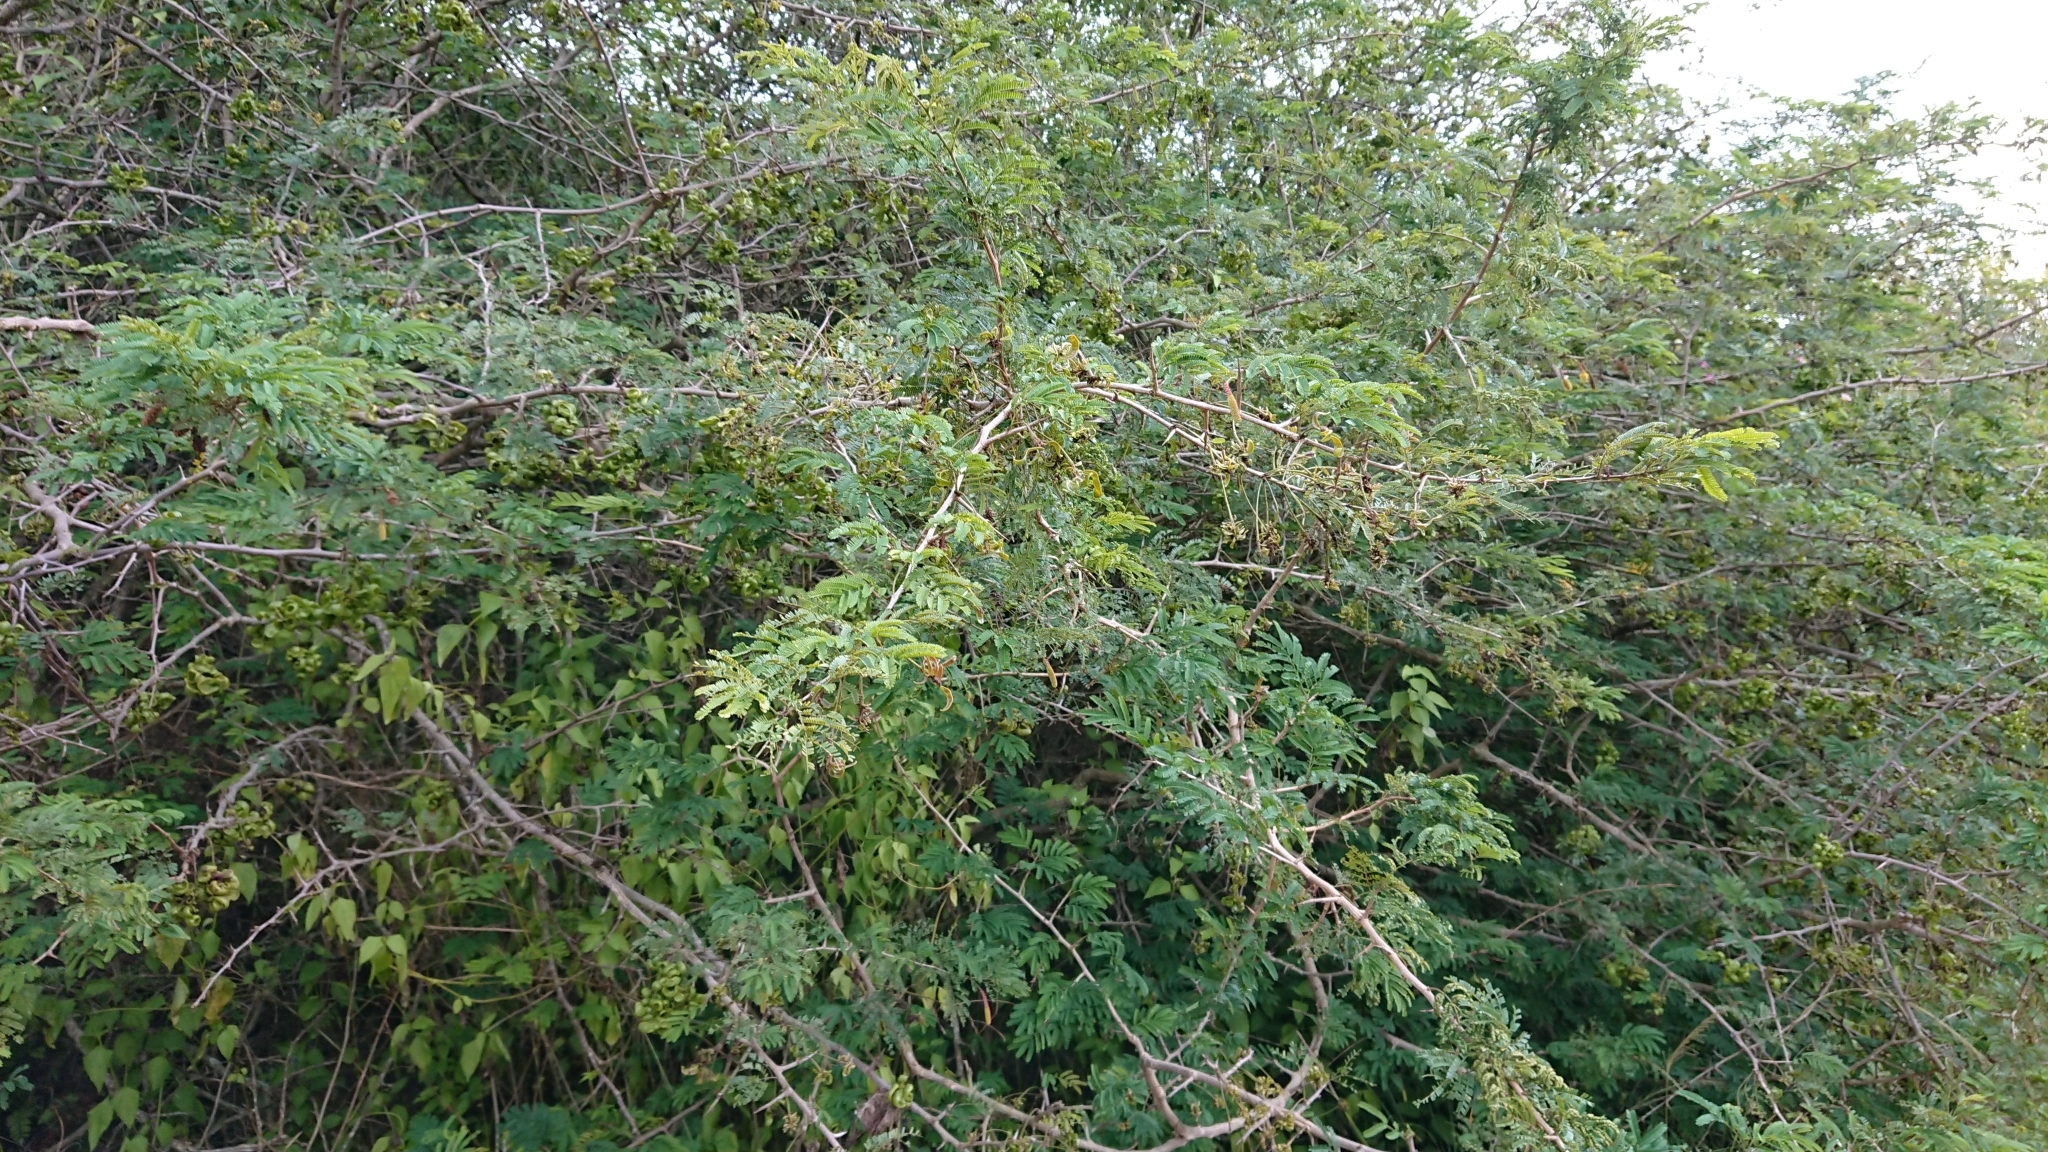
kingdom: Plantae
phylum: Tracheophyta
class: Magnoliopsida
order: Fabales
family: Fabaceae
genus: Dichrostachys
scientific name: Dichrostachys cinerea
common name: Sicklebush
